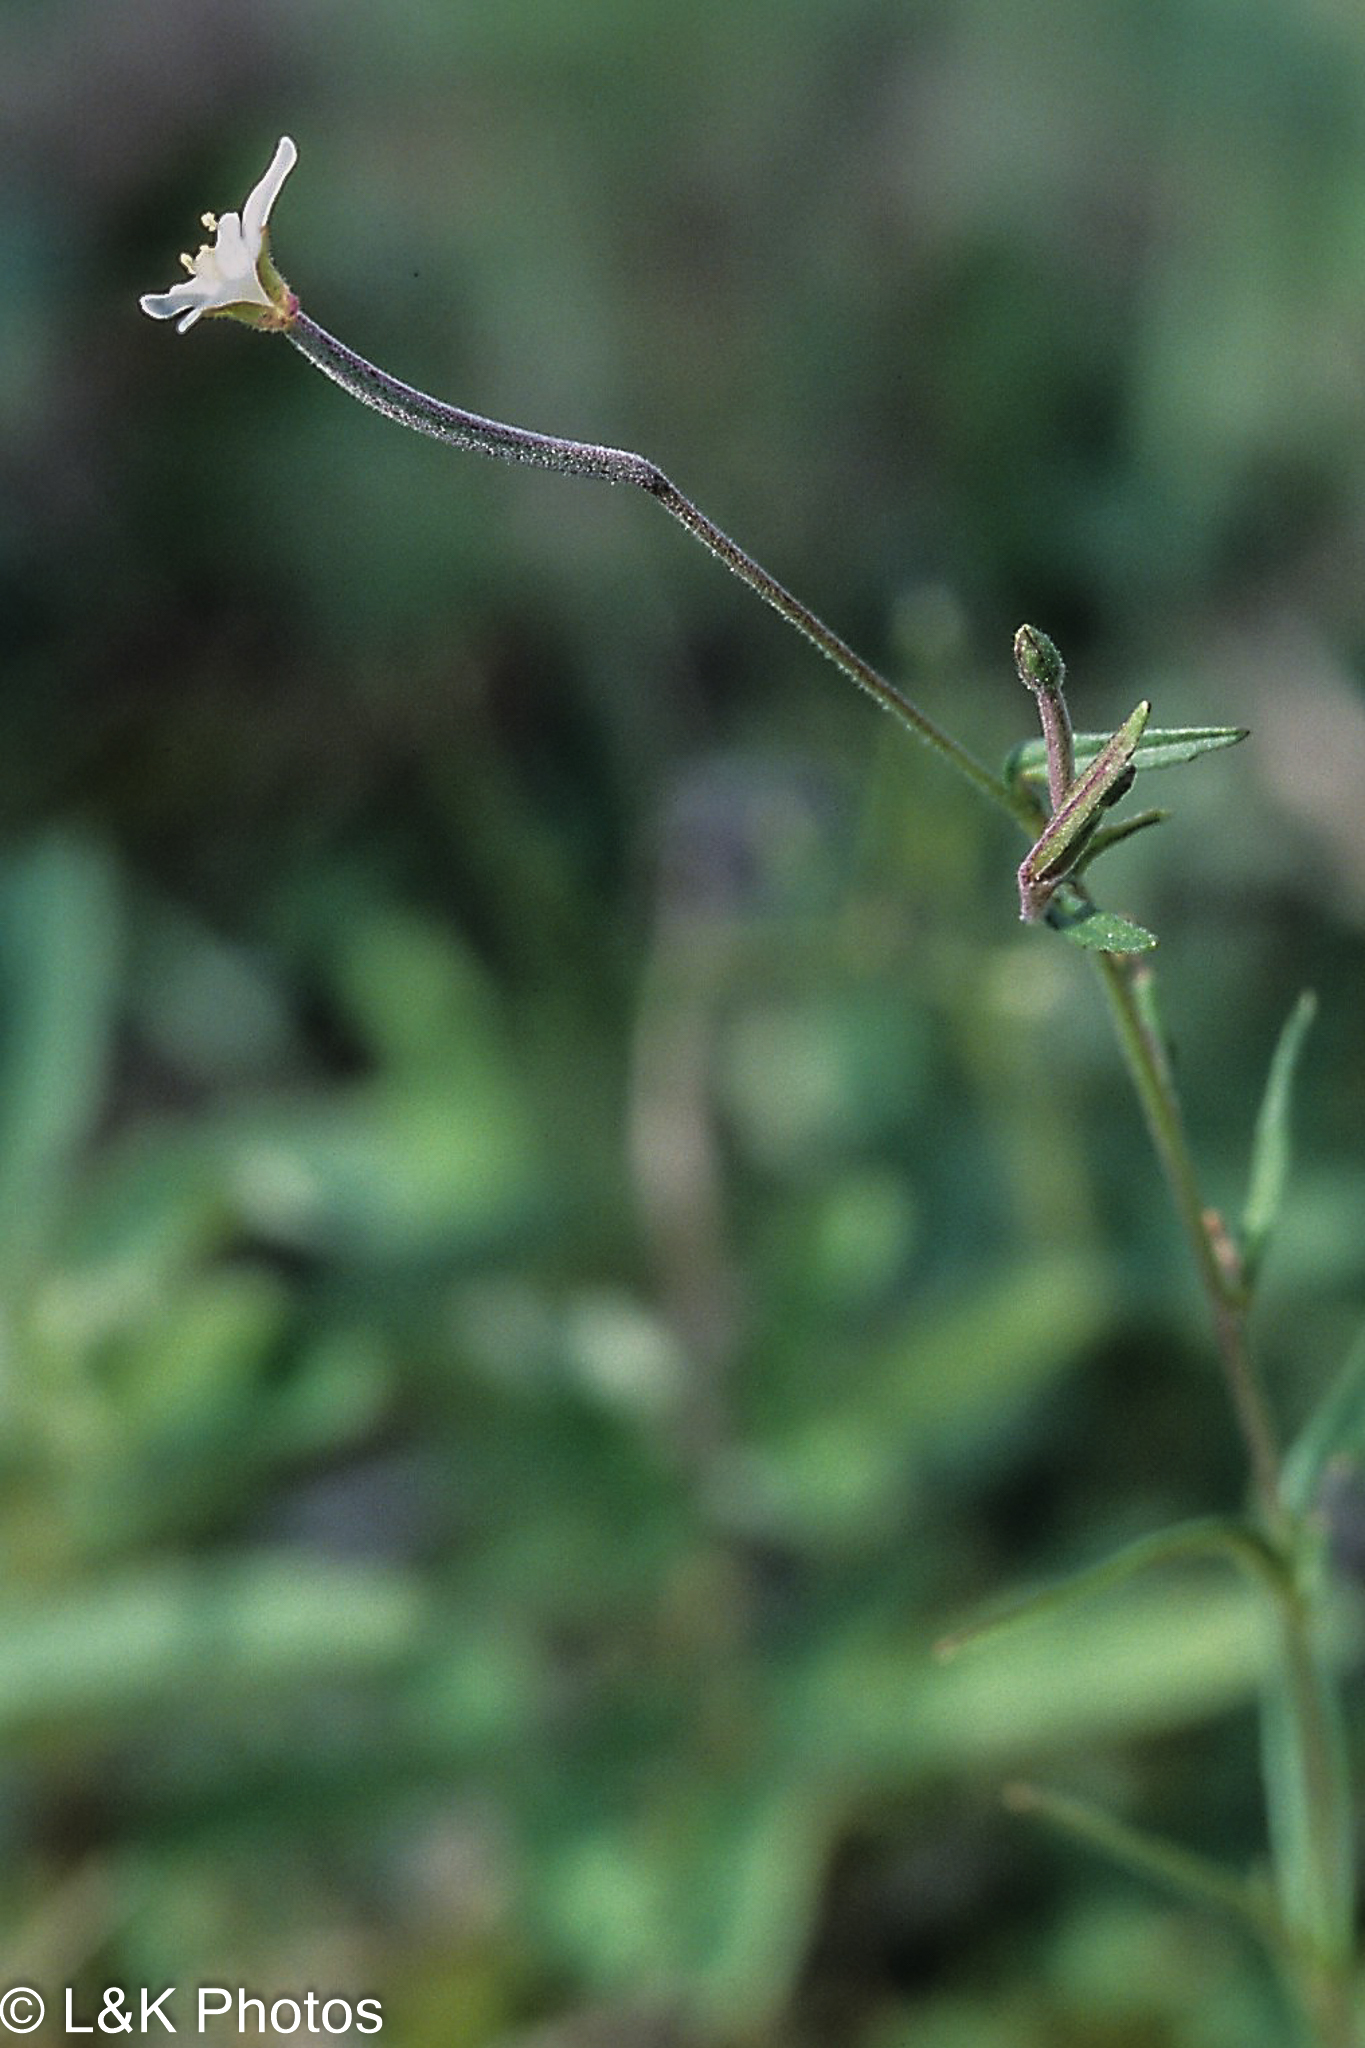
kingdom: Plantae
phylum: Tracheophyta
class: Magnoliopsida
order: Myrtales
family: Onagraceae
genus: Epilobium
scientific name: Epilobium leptophyllum
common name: Bog willowherb
